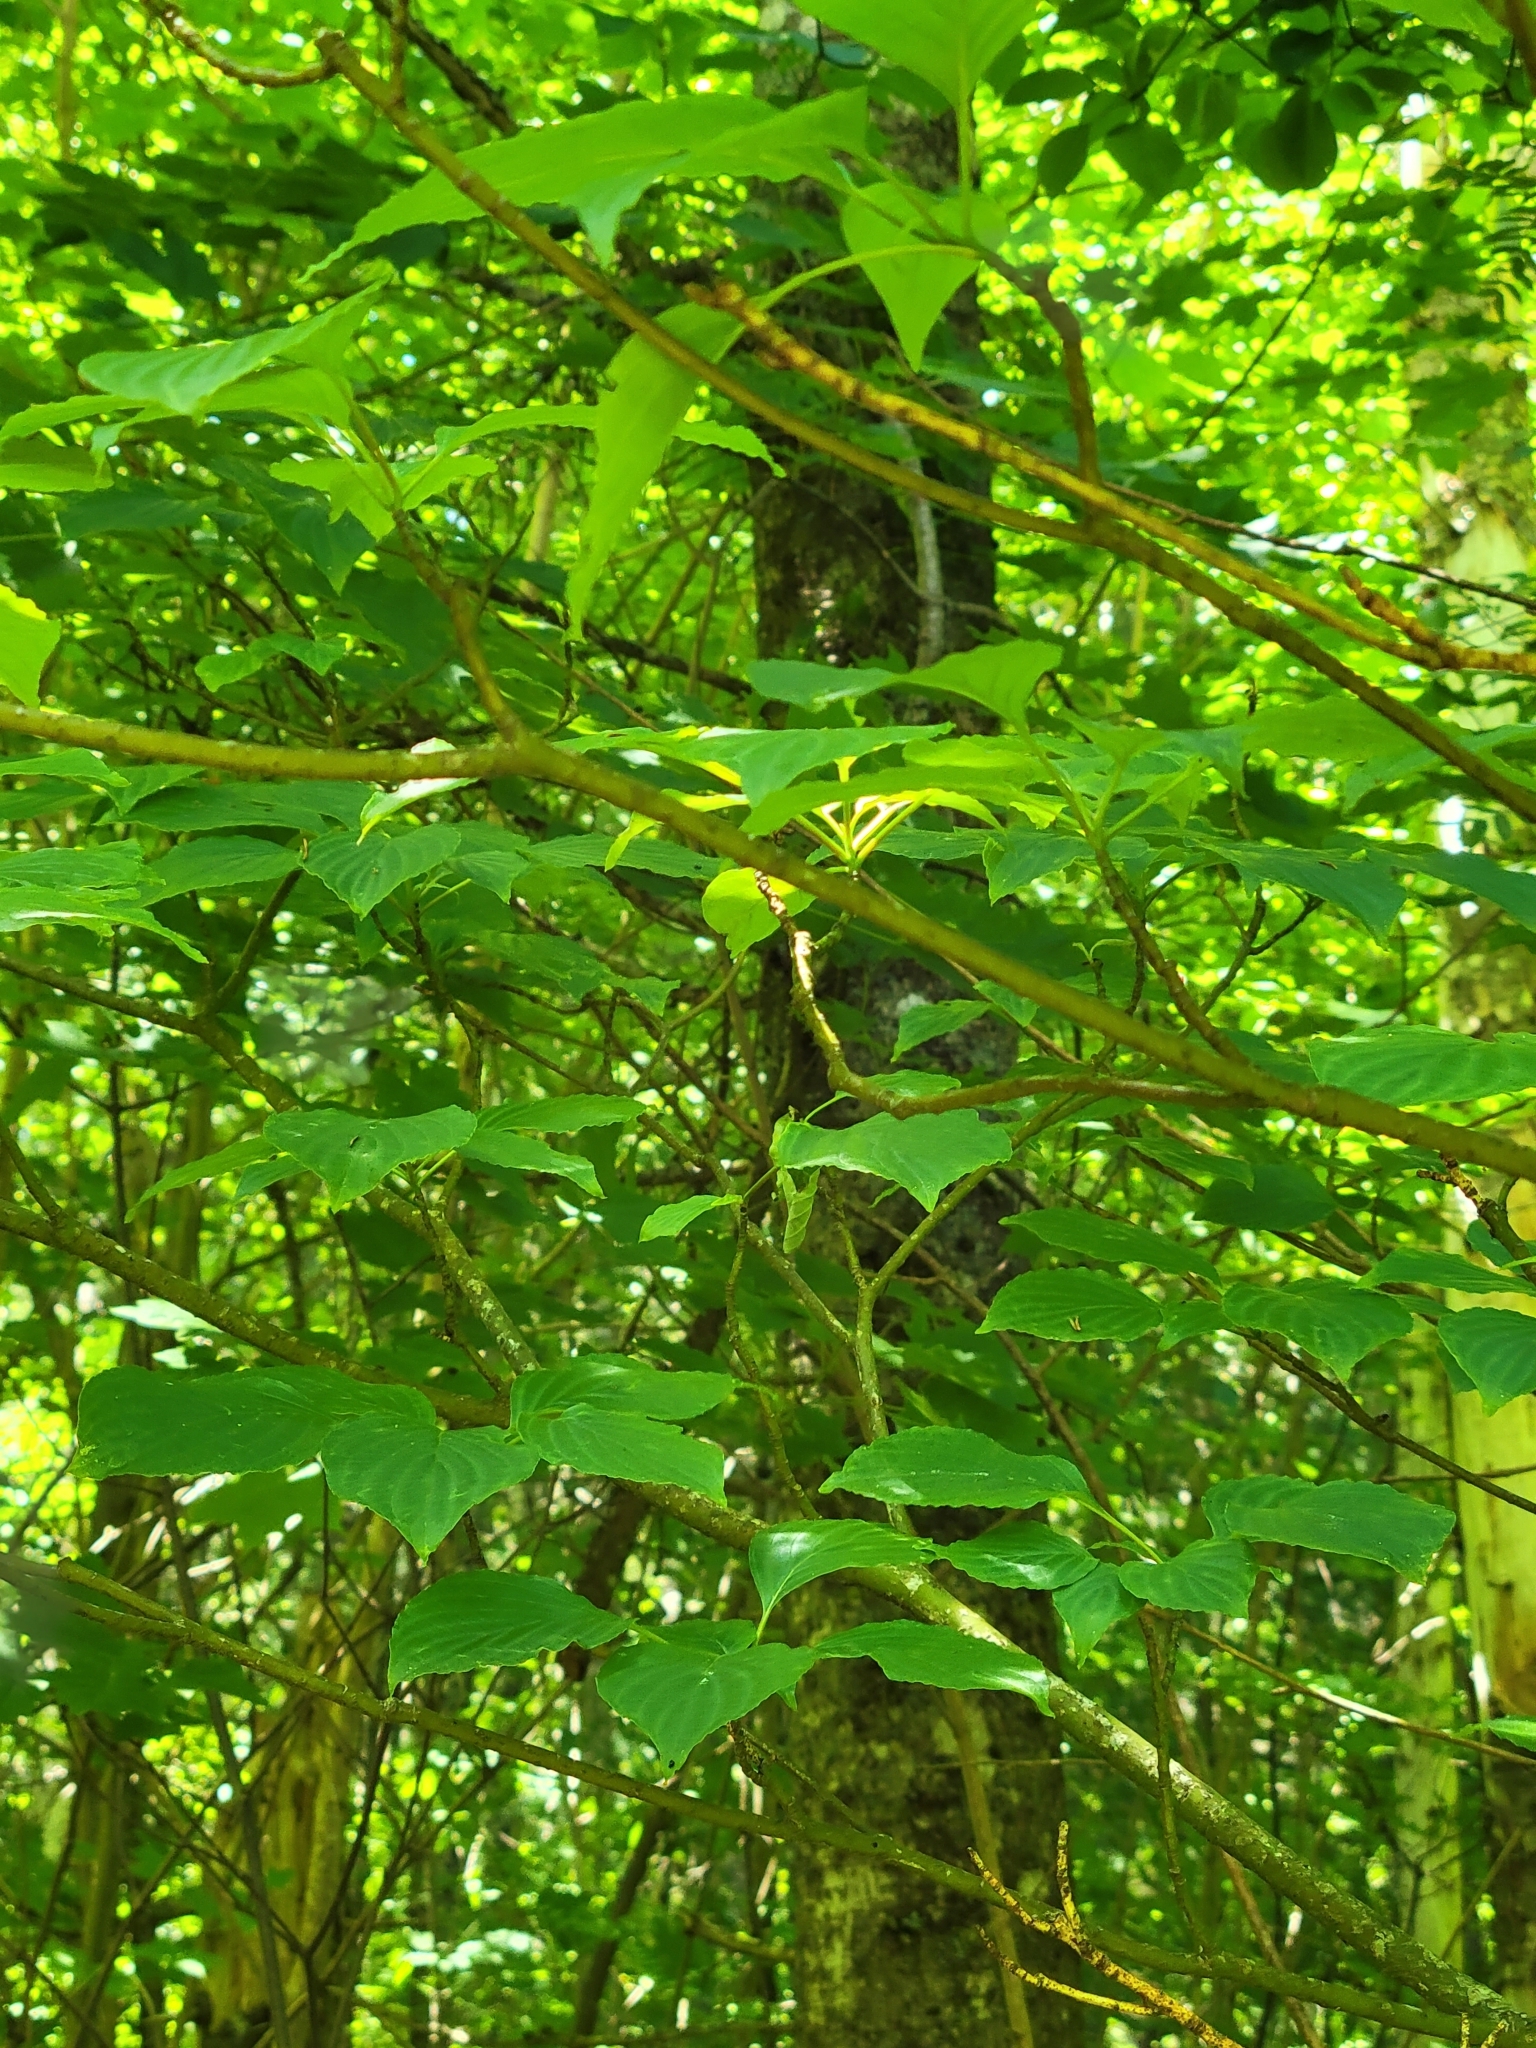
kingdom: Plantae
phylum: Tracheophyta
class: Magnoliopsida
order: Cornales
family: Cornaceae
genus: Cornus
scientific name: Cornus alternifolia
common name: Pagoda dogwood
